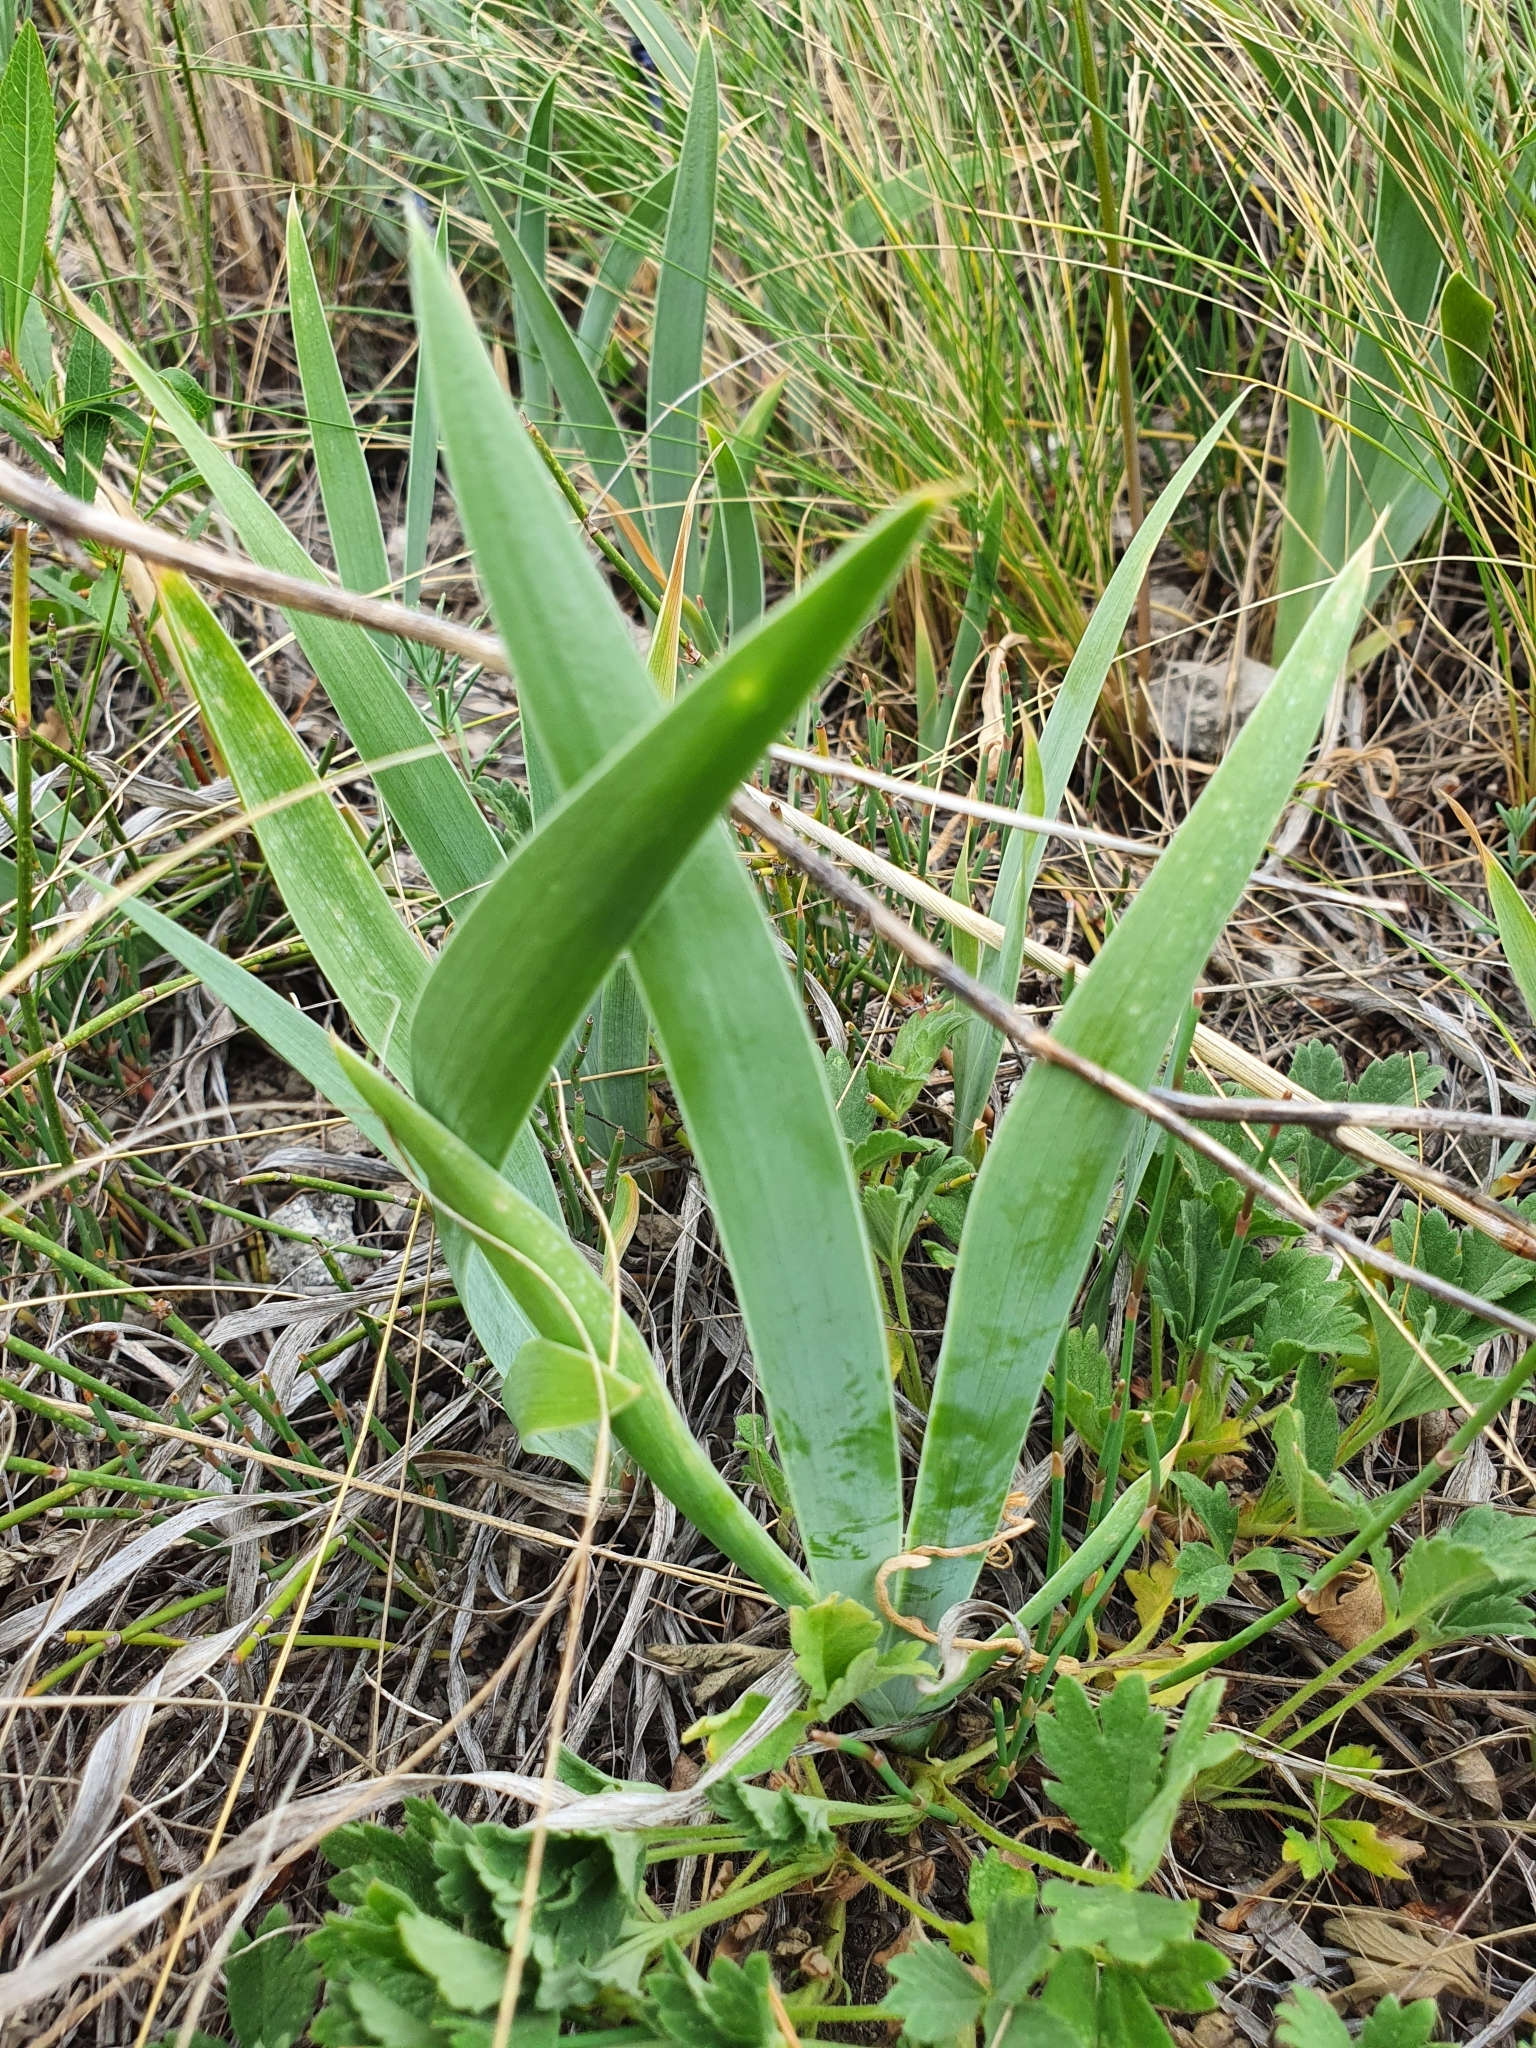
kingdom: Plantae
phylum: Tracheophyta
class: Liliopsida
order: Asparagales
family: Iridaceae
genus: Iris
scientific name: Iris pumila
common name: Dwarf iris
